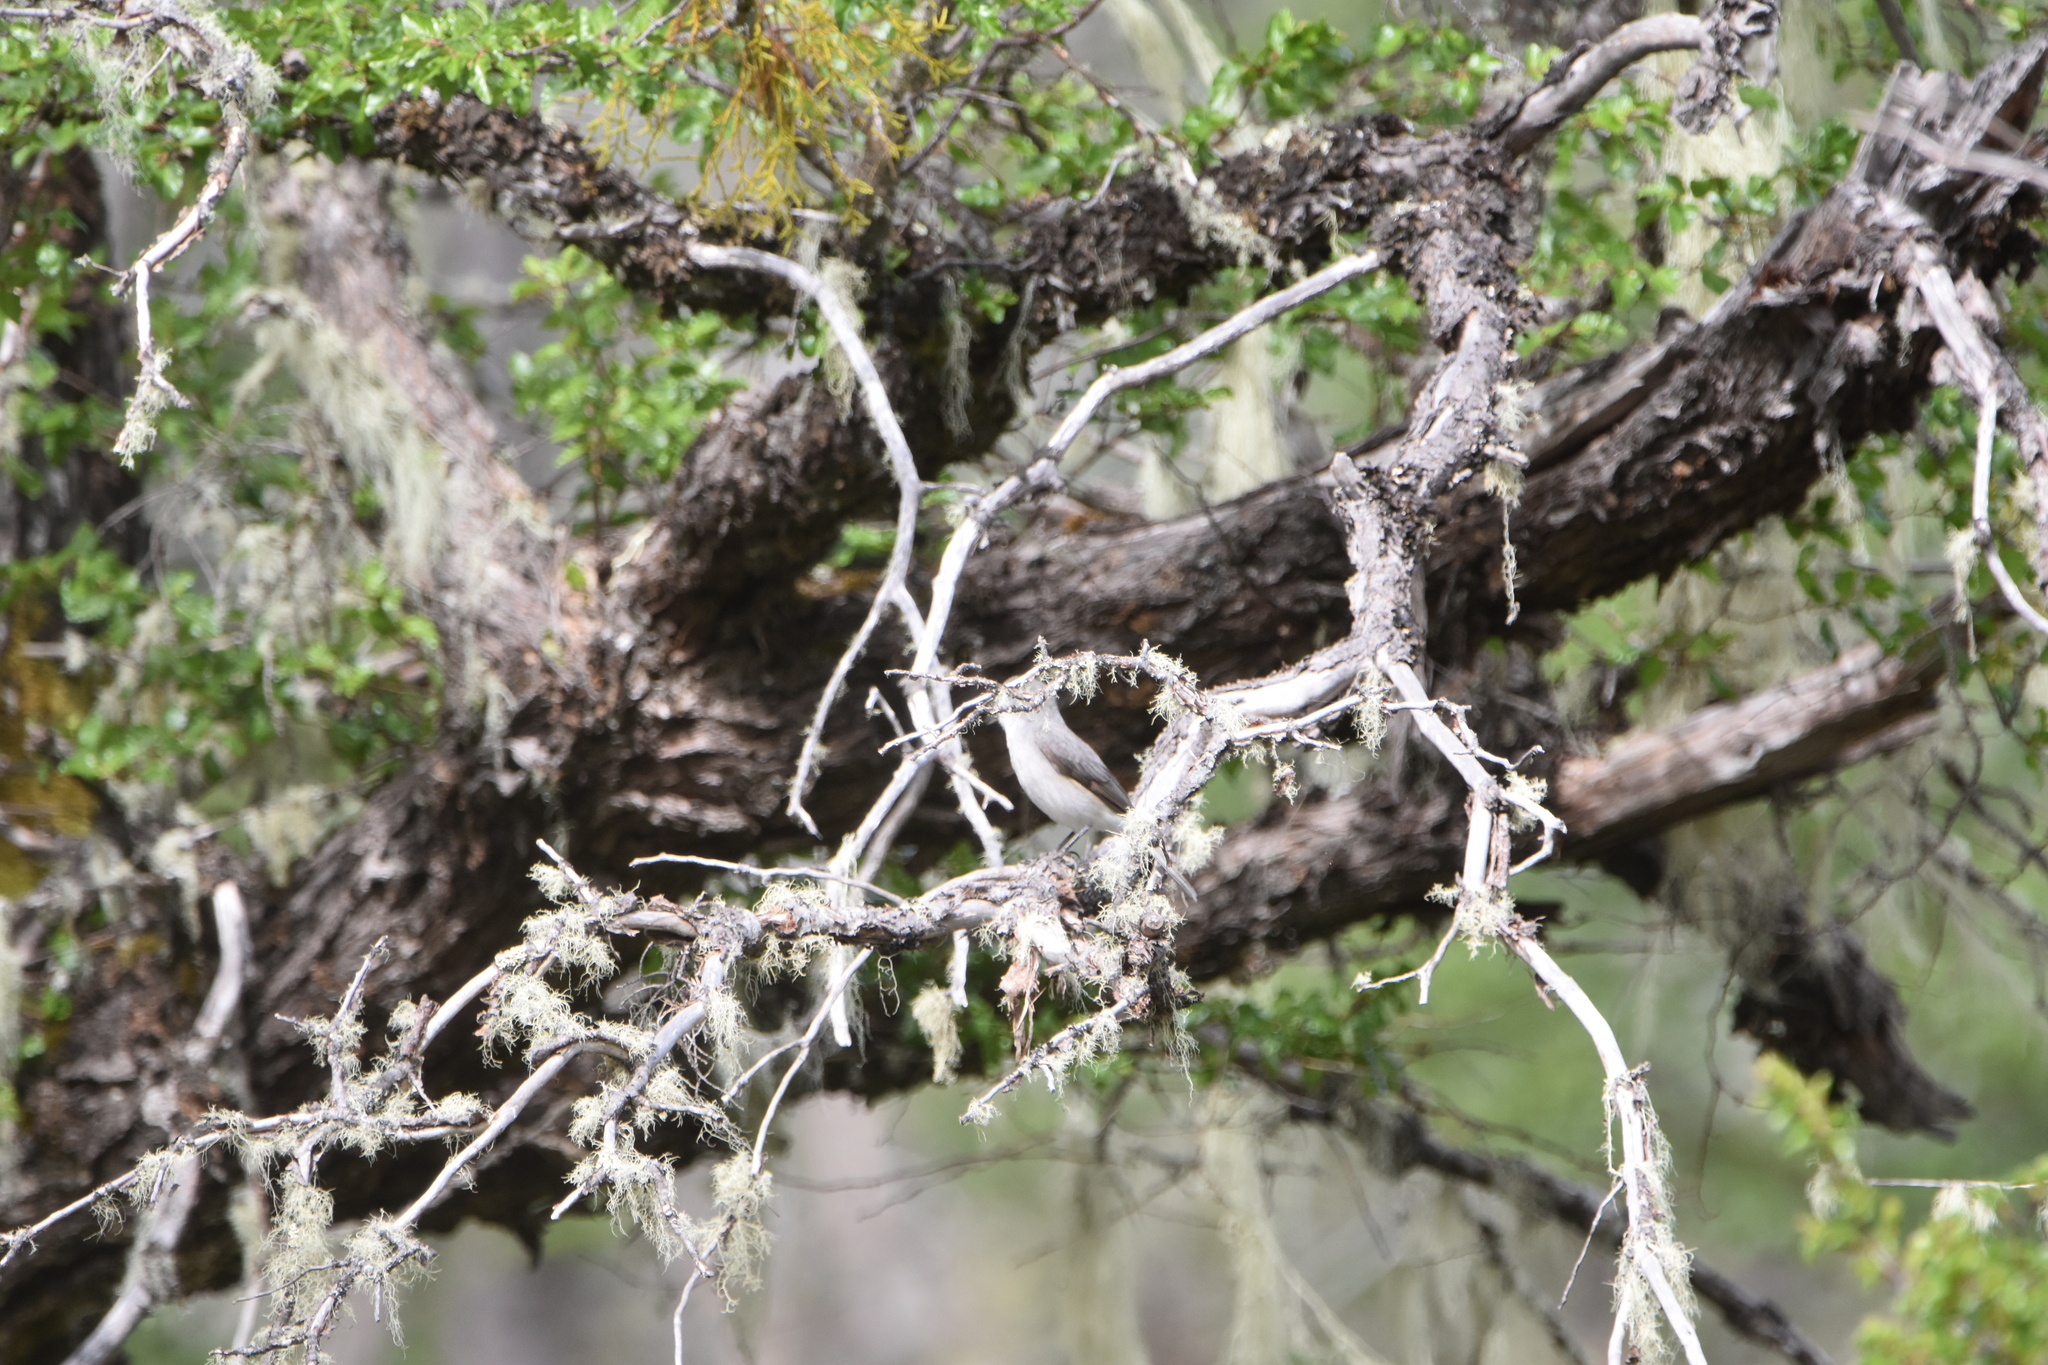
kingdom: Animalia
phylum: Chordata
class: Aves
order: Passeriformes
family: Tyrannidae
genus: Xolmis
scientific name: Xolmis pyrope
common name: Fire-eyed diucon
